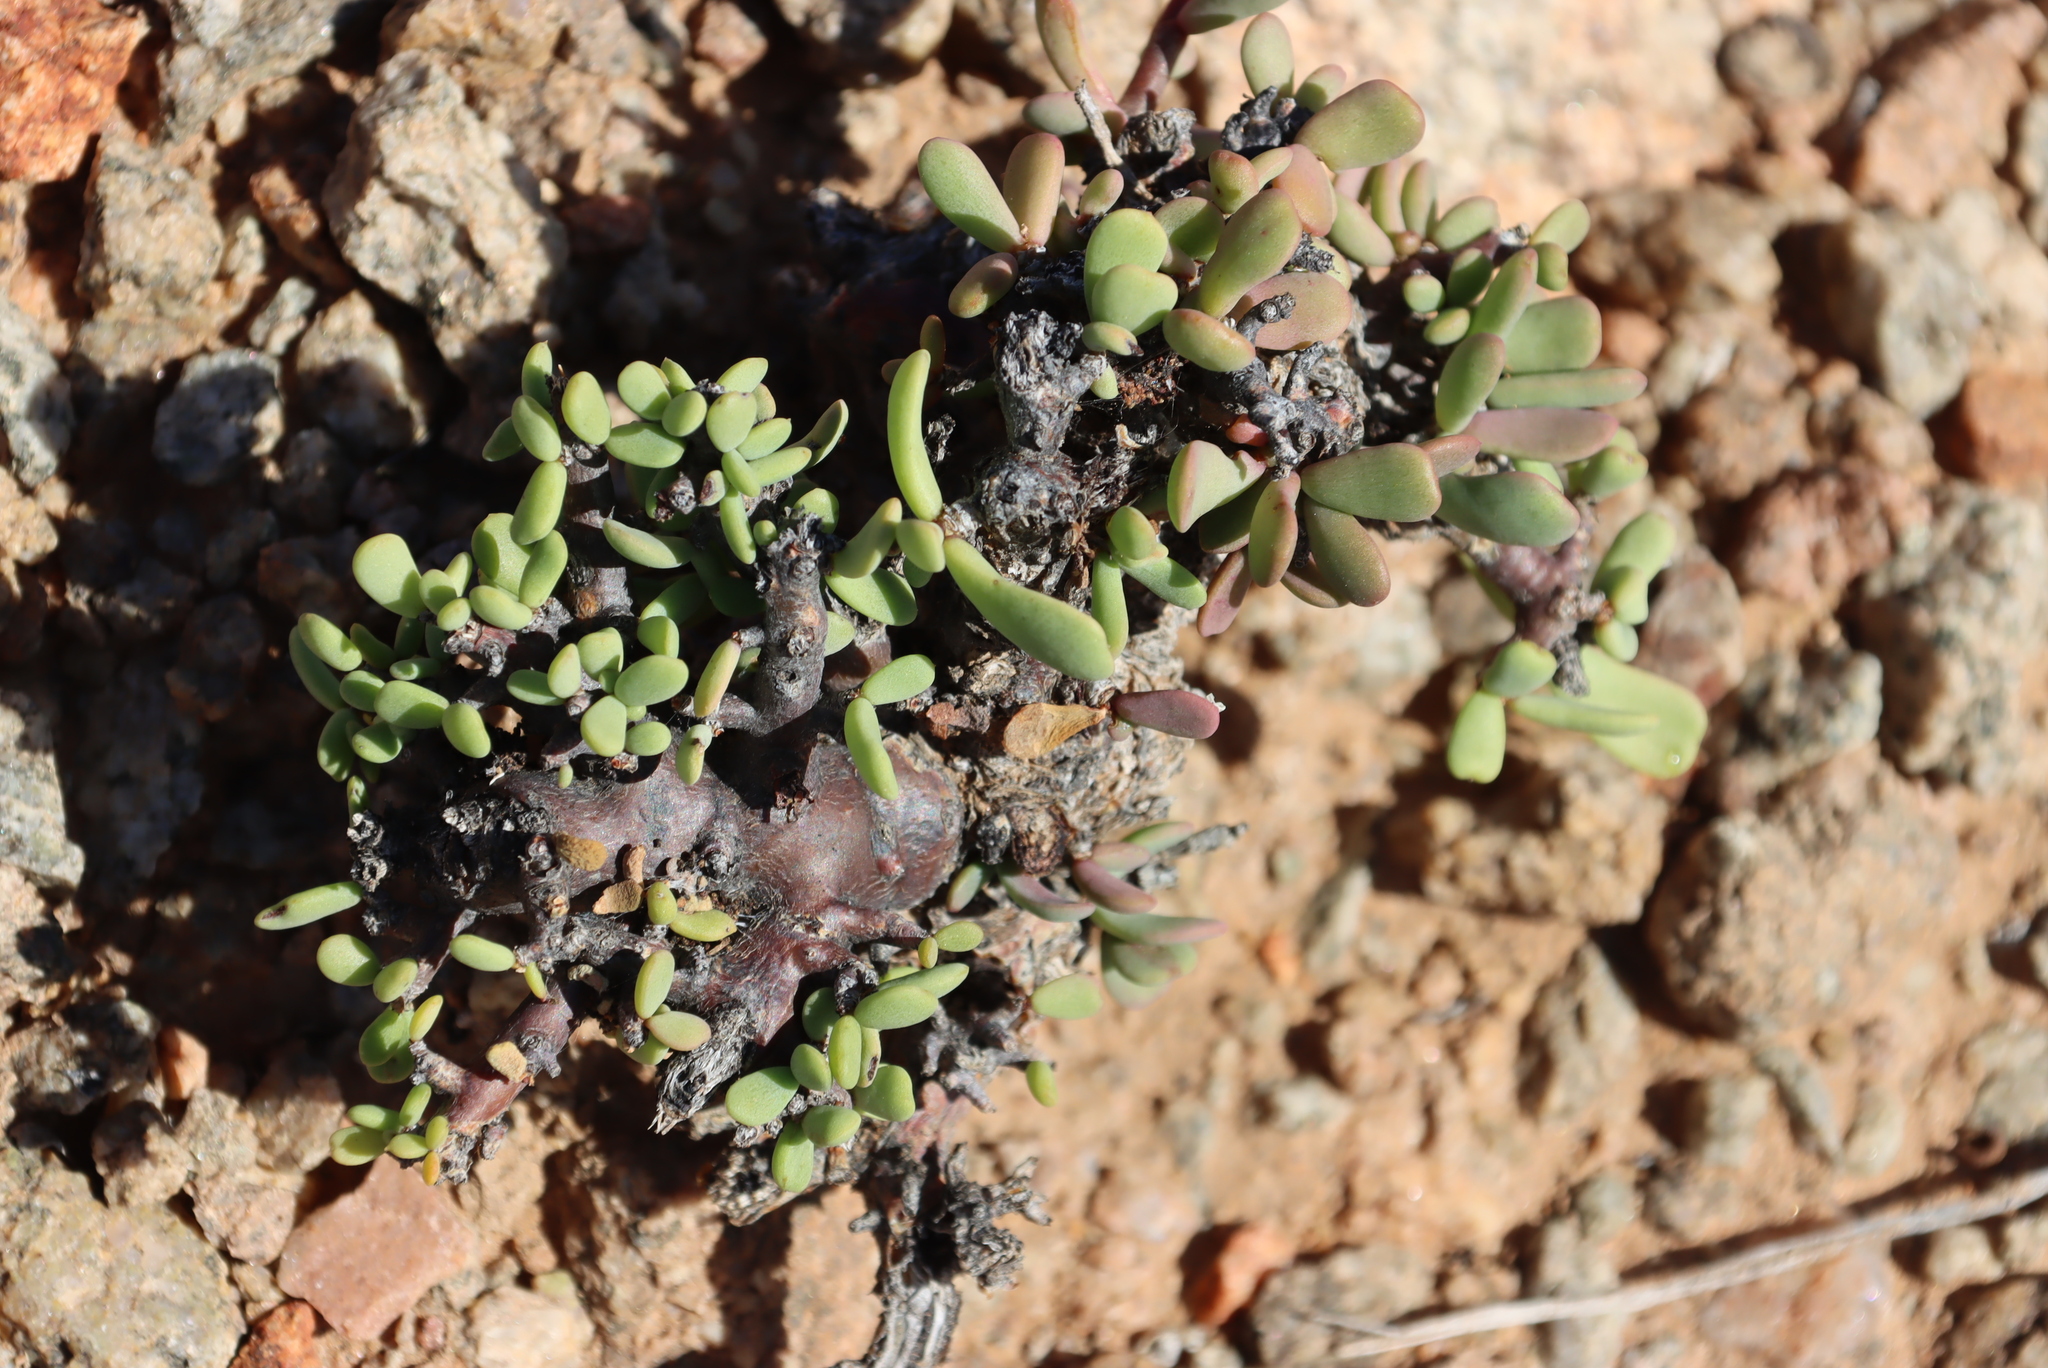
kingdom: Plantae
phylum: Tracheophyta
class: Magnoliopsida
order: Caryophyllales
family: Didiereaceae
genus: Portulacaria
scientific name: Portulacaria pygmaea
